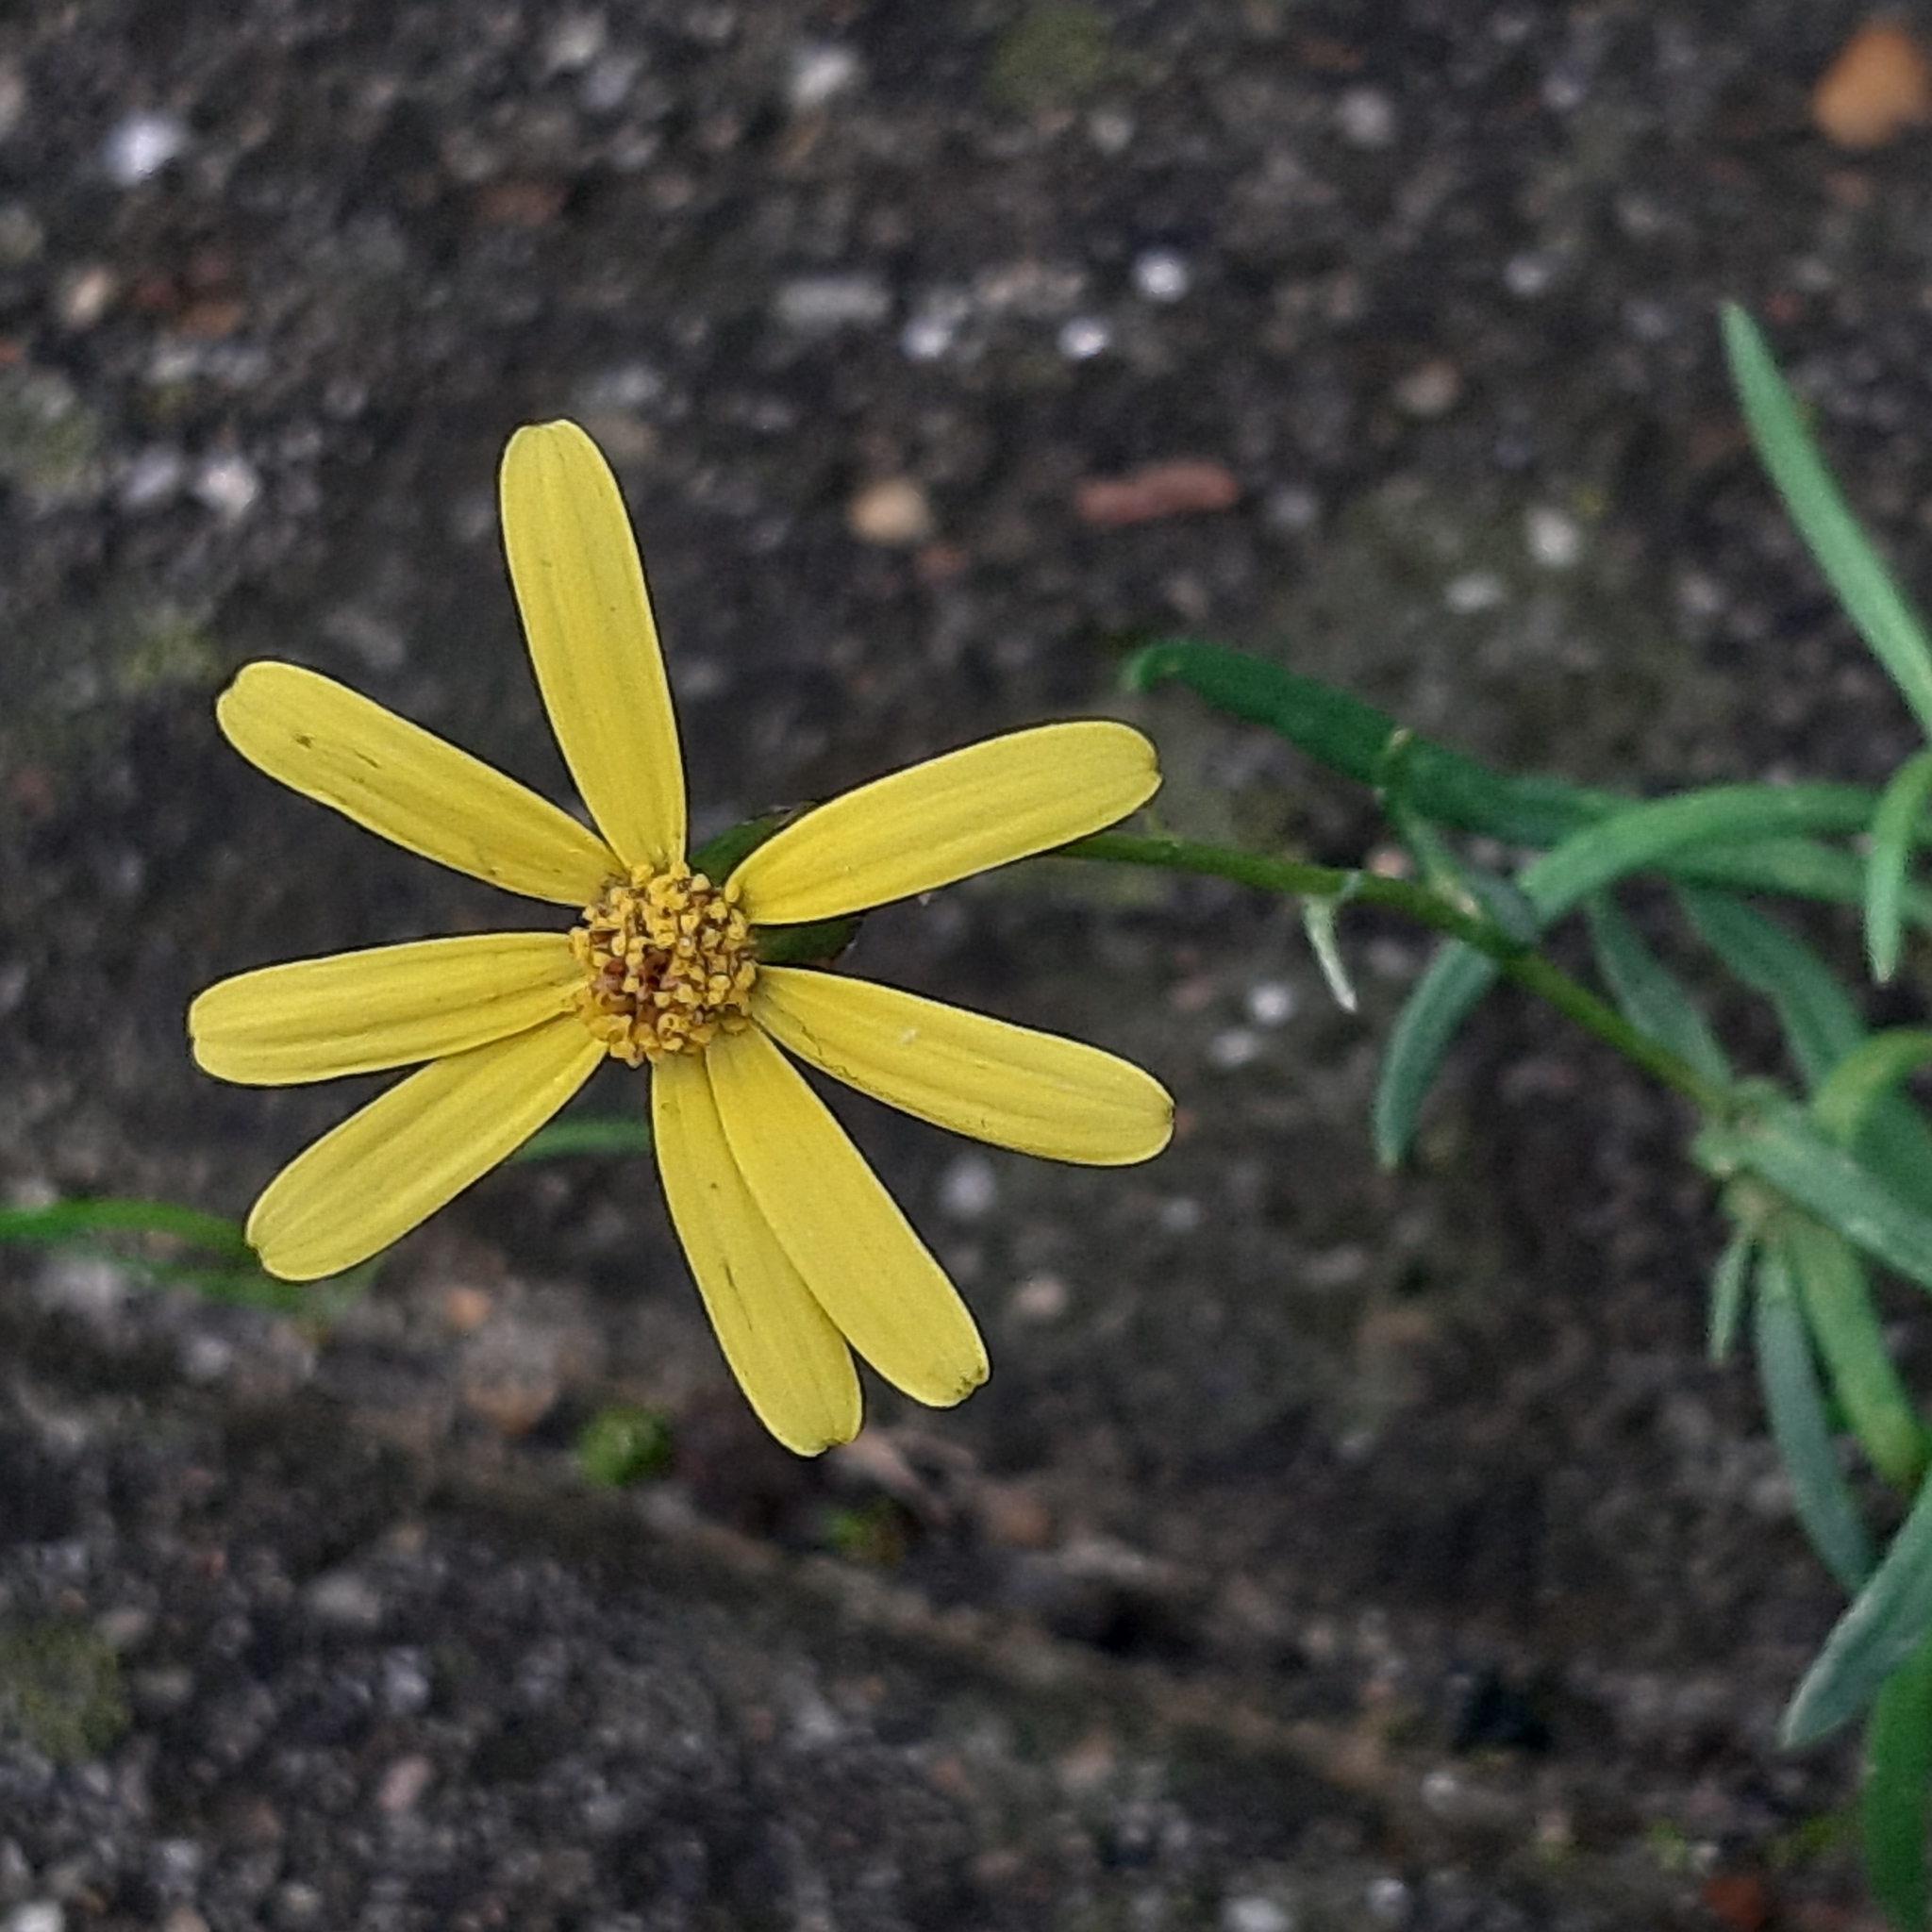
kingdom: Plantae
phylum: Tracheophyta
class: Magnoliopsida
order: Asterales
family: Asteraceae
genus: Senecio
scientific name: Senecio inaequidens
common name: Narrow-leaved ragwort
